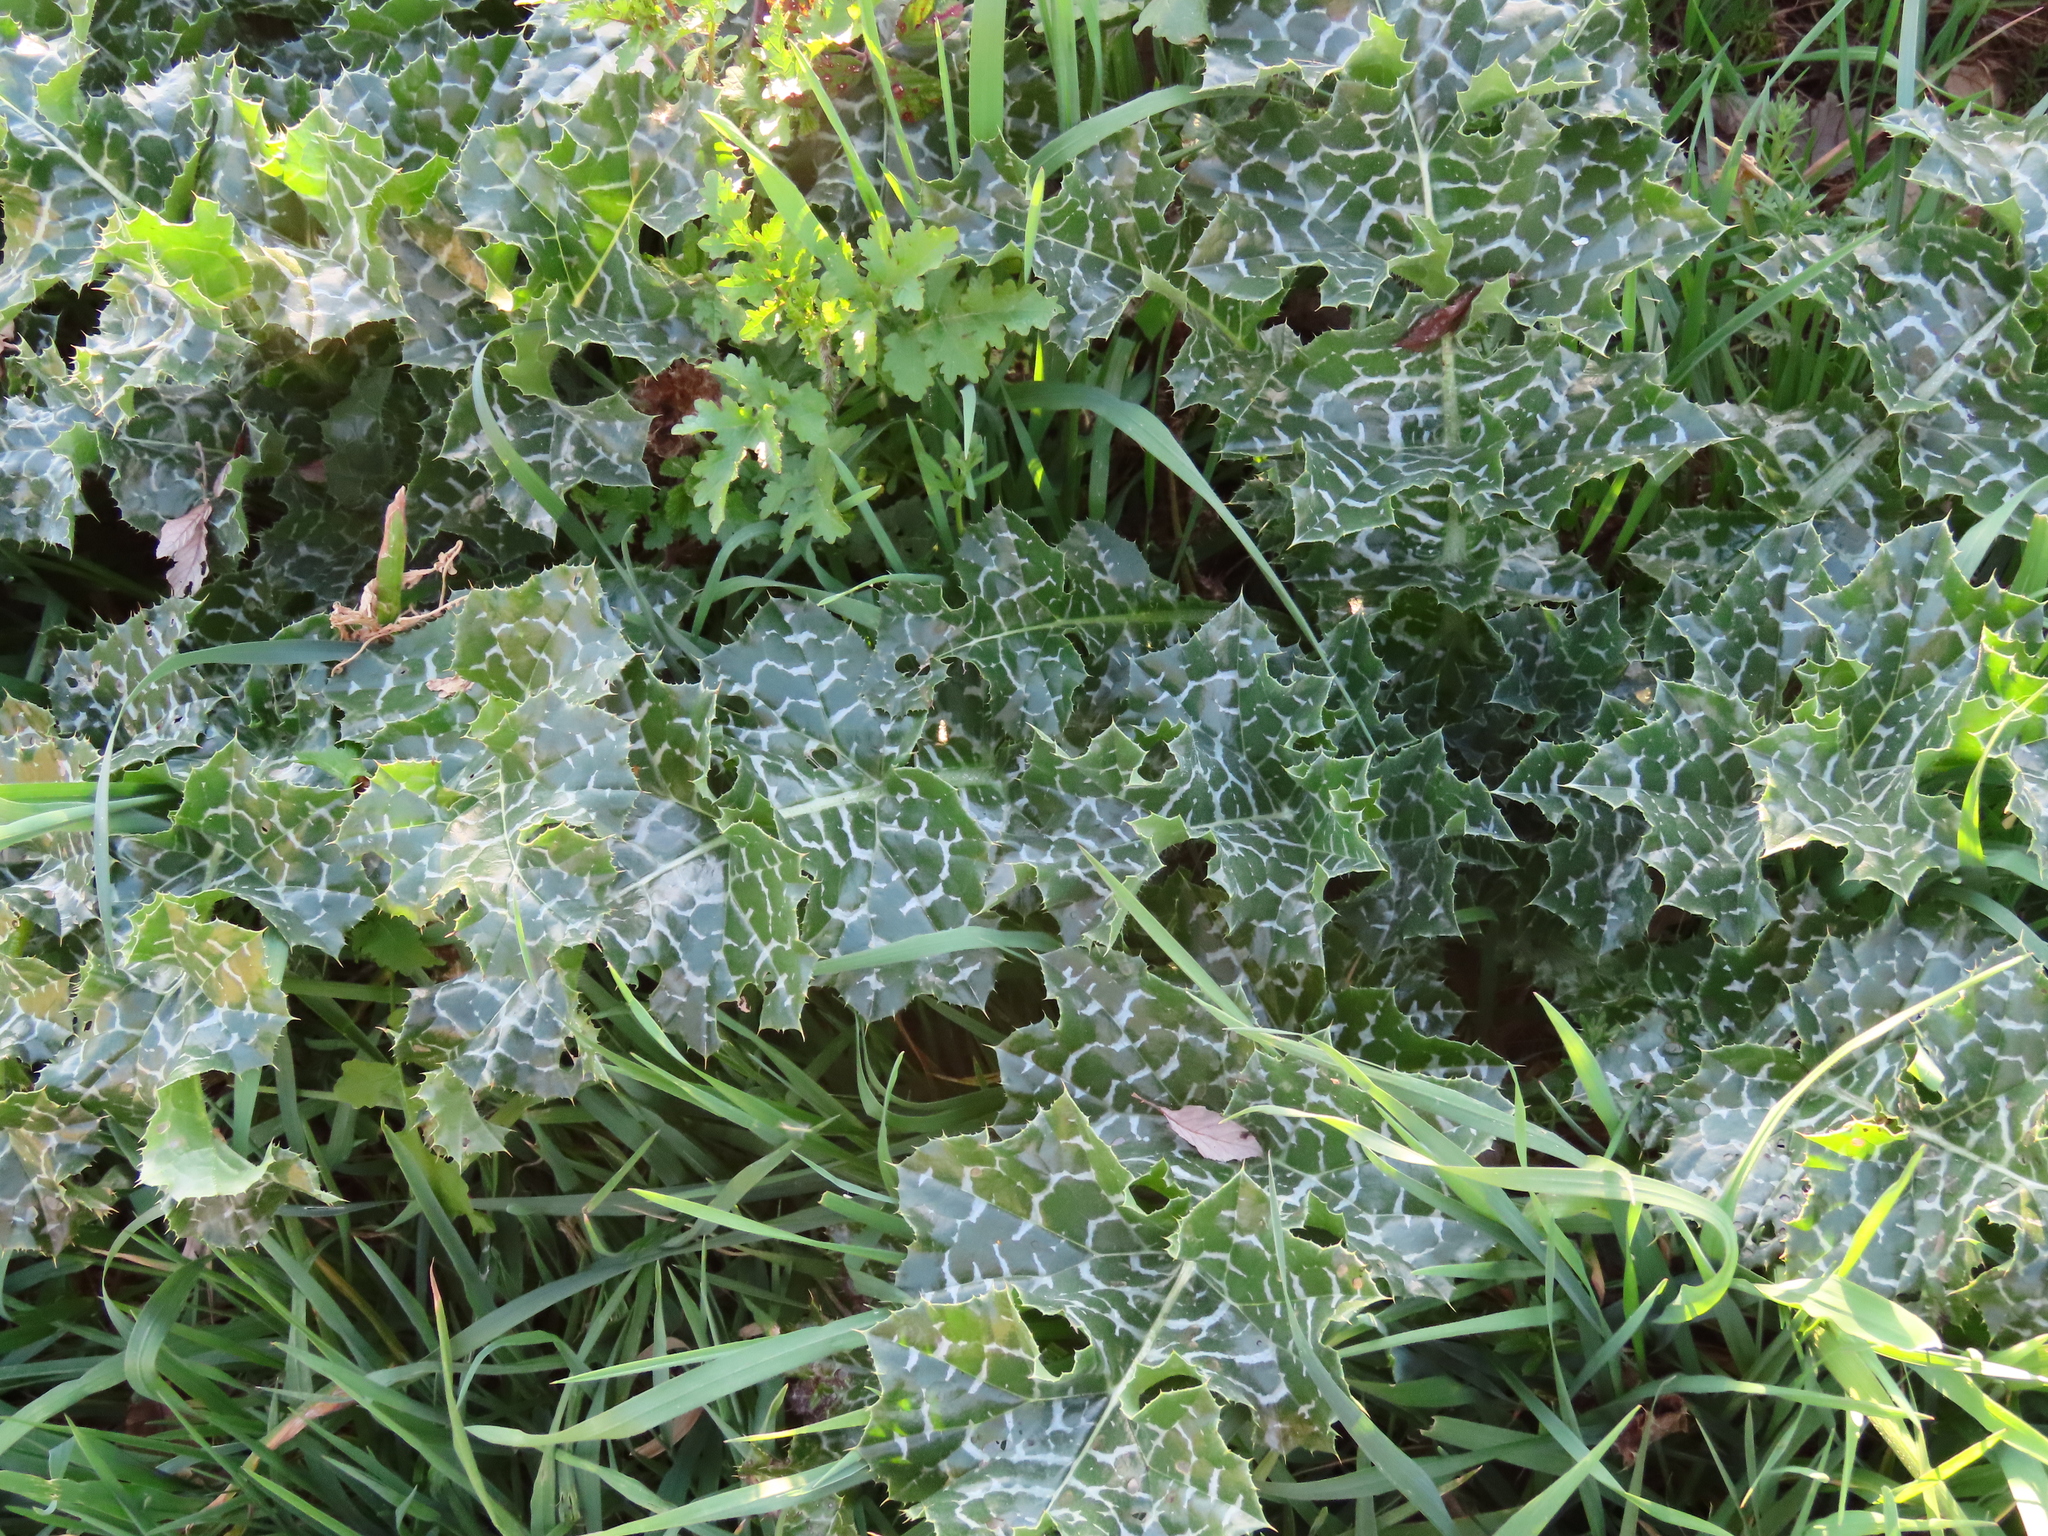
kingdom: Plantae
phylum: Tracheophyta
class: Magnoliopsida
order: Asterales
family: Asteraceae
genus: Silybum
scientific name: Silybum marianum
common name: Milk thistle
